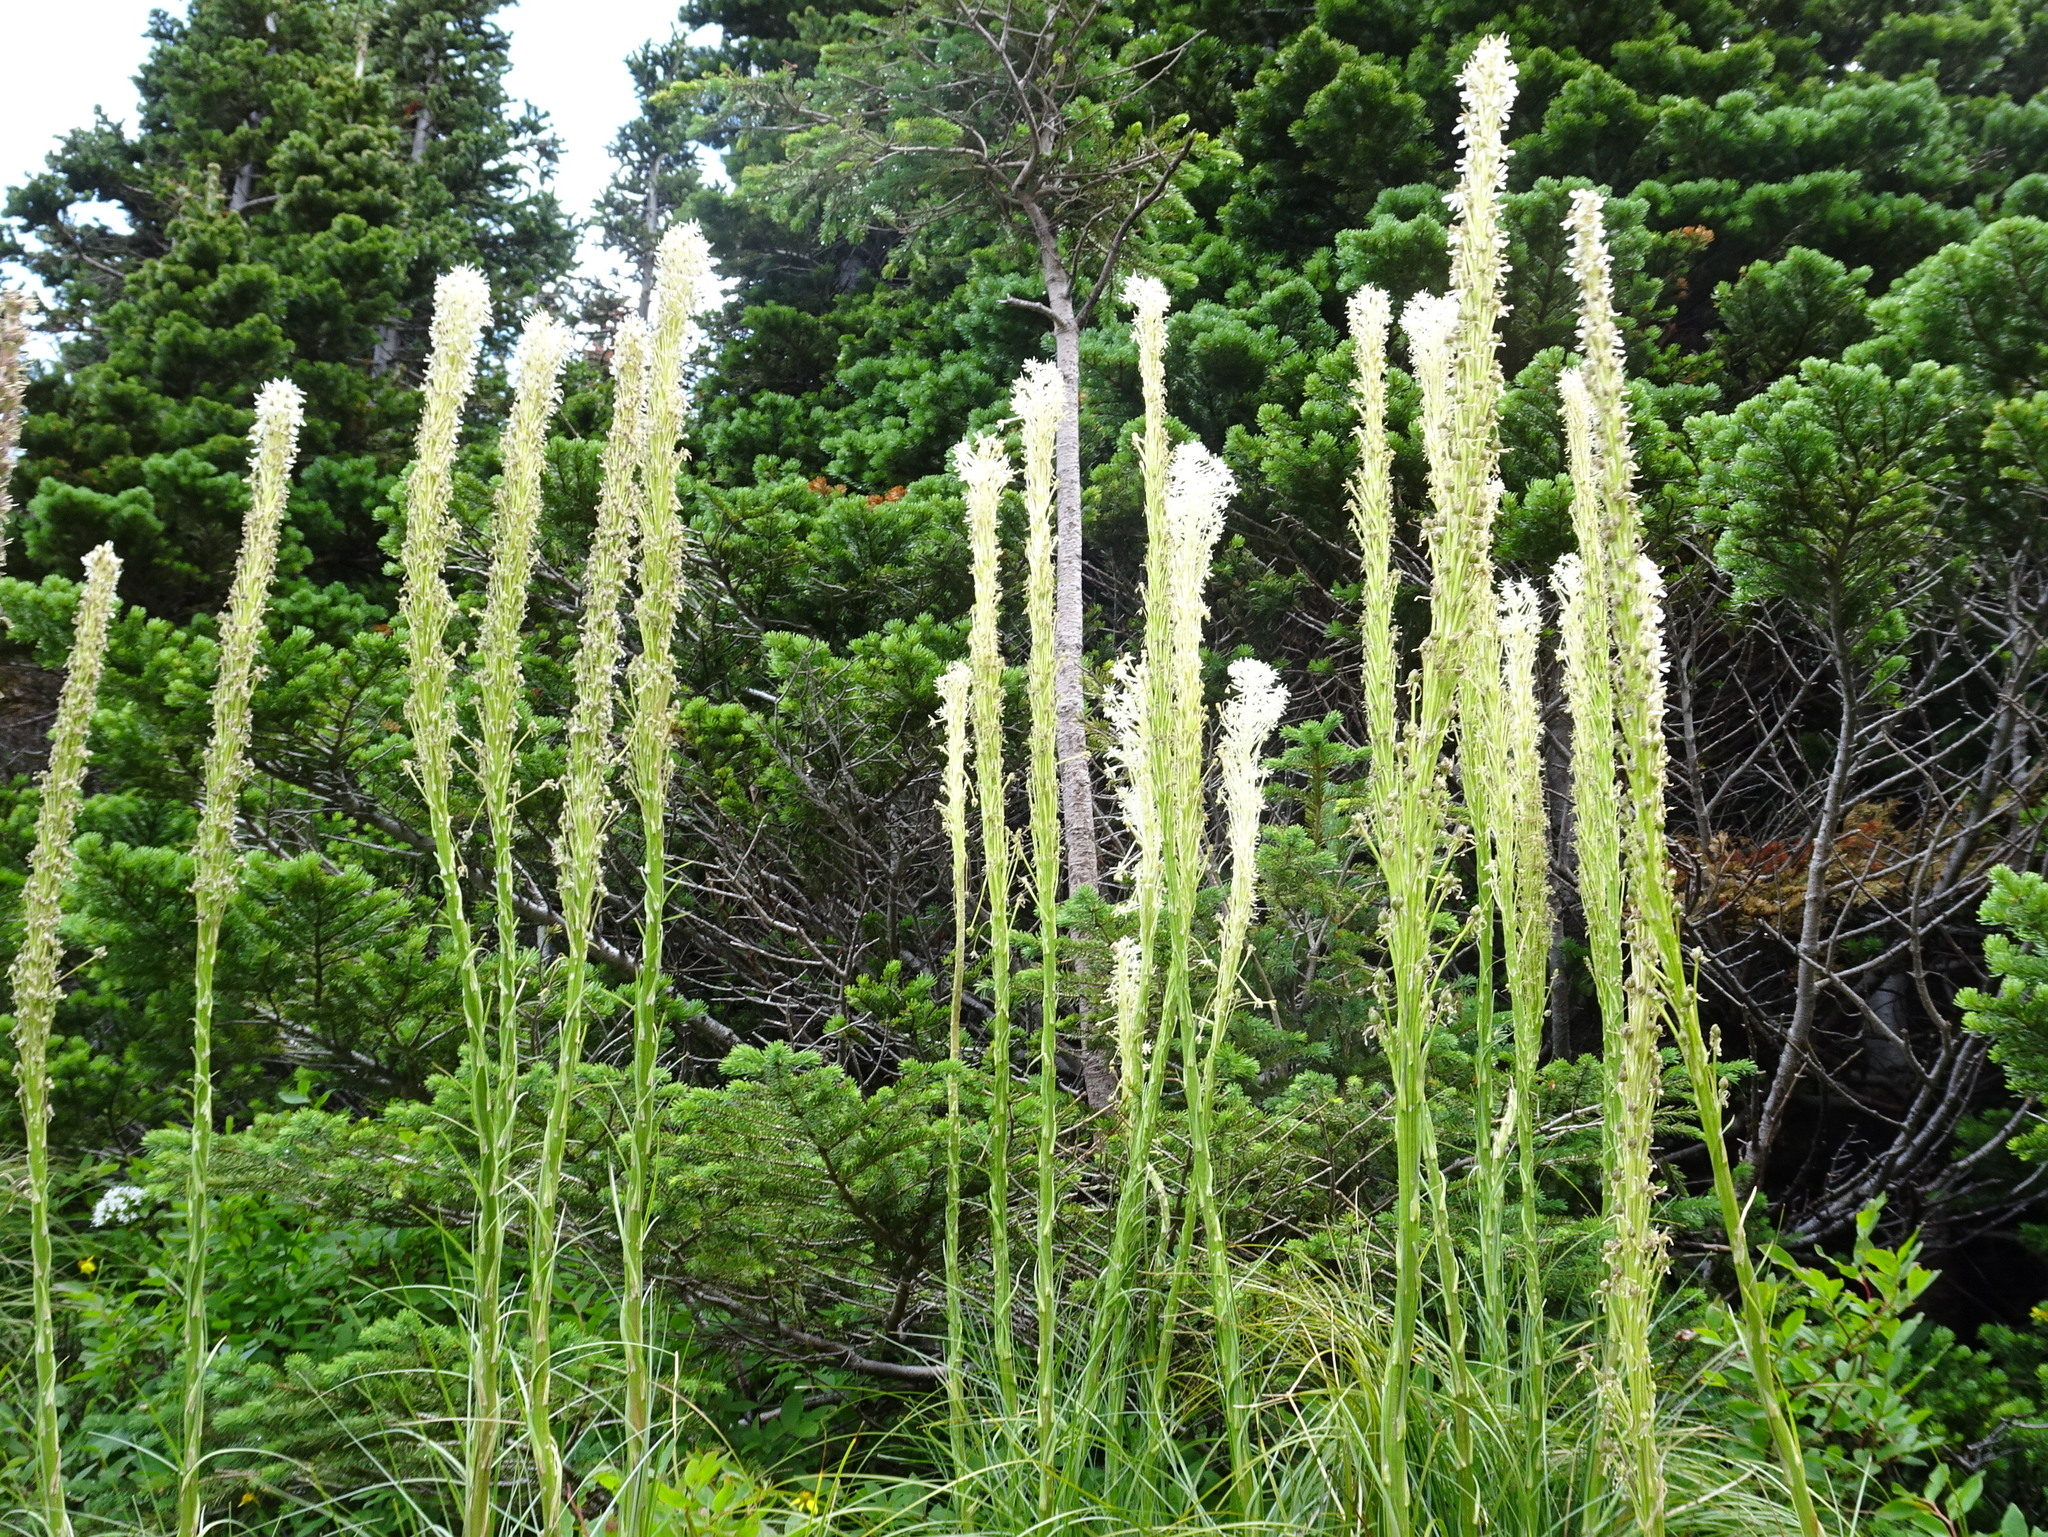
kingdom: Plantae
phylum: Tracheophyta
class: Liliopsida
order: Liliales
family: Melanthiaceae
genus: Xerophyllum
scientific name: Xerophyllum tenax
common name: Bear-grass
